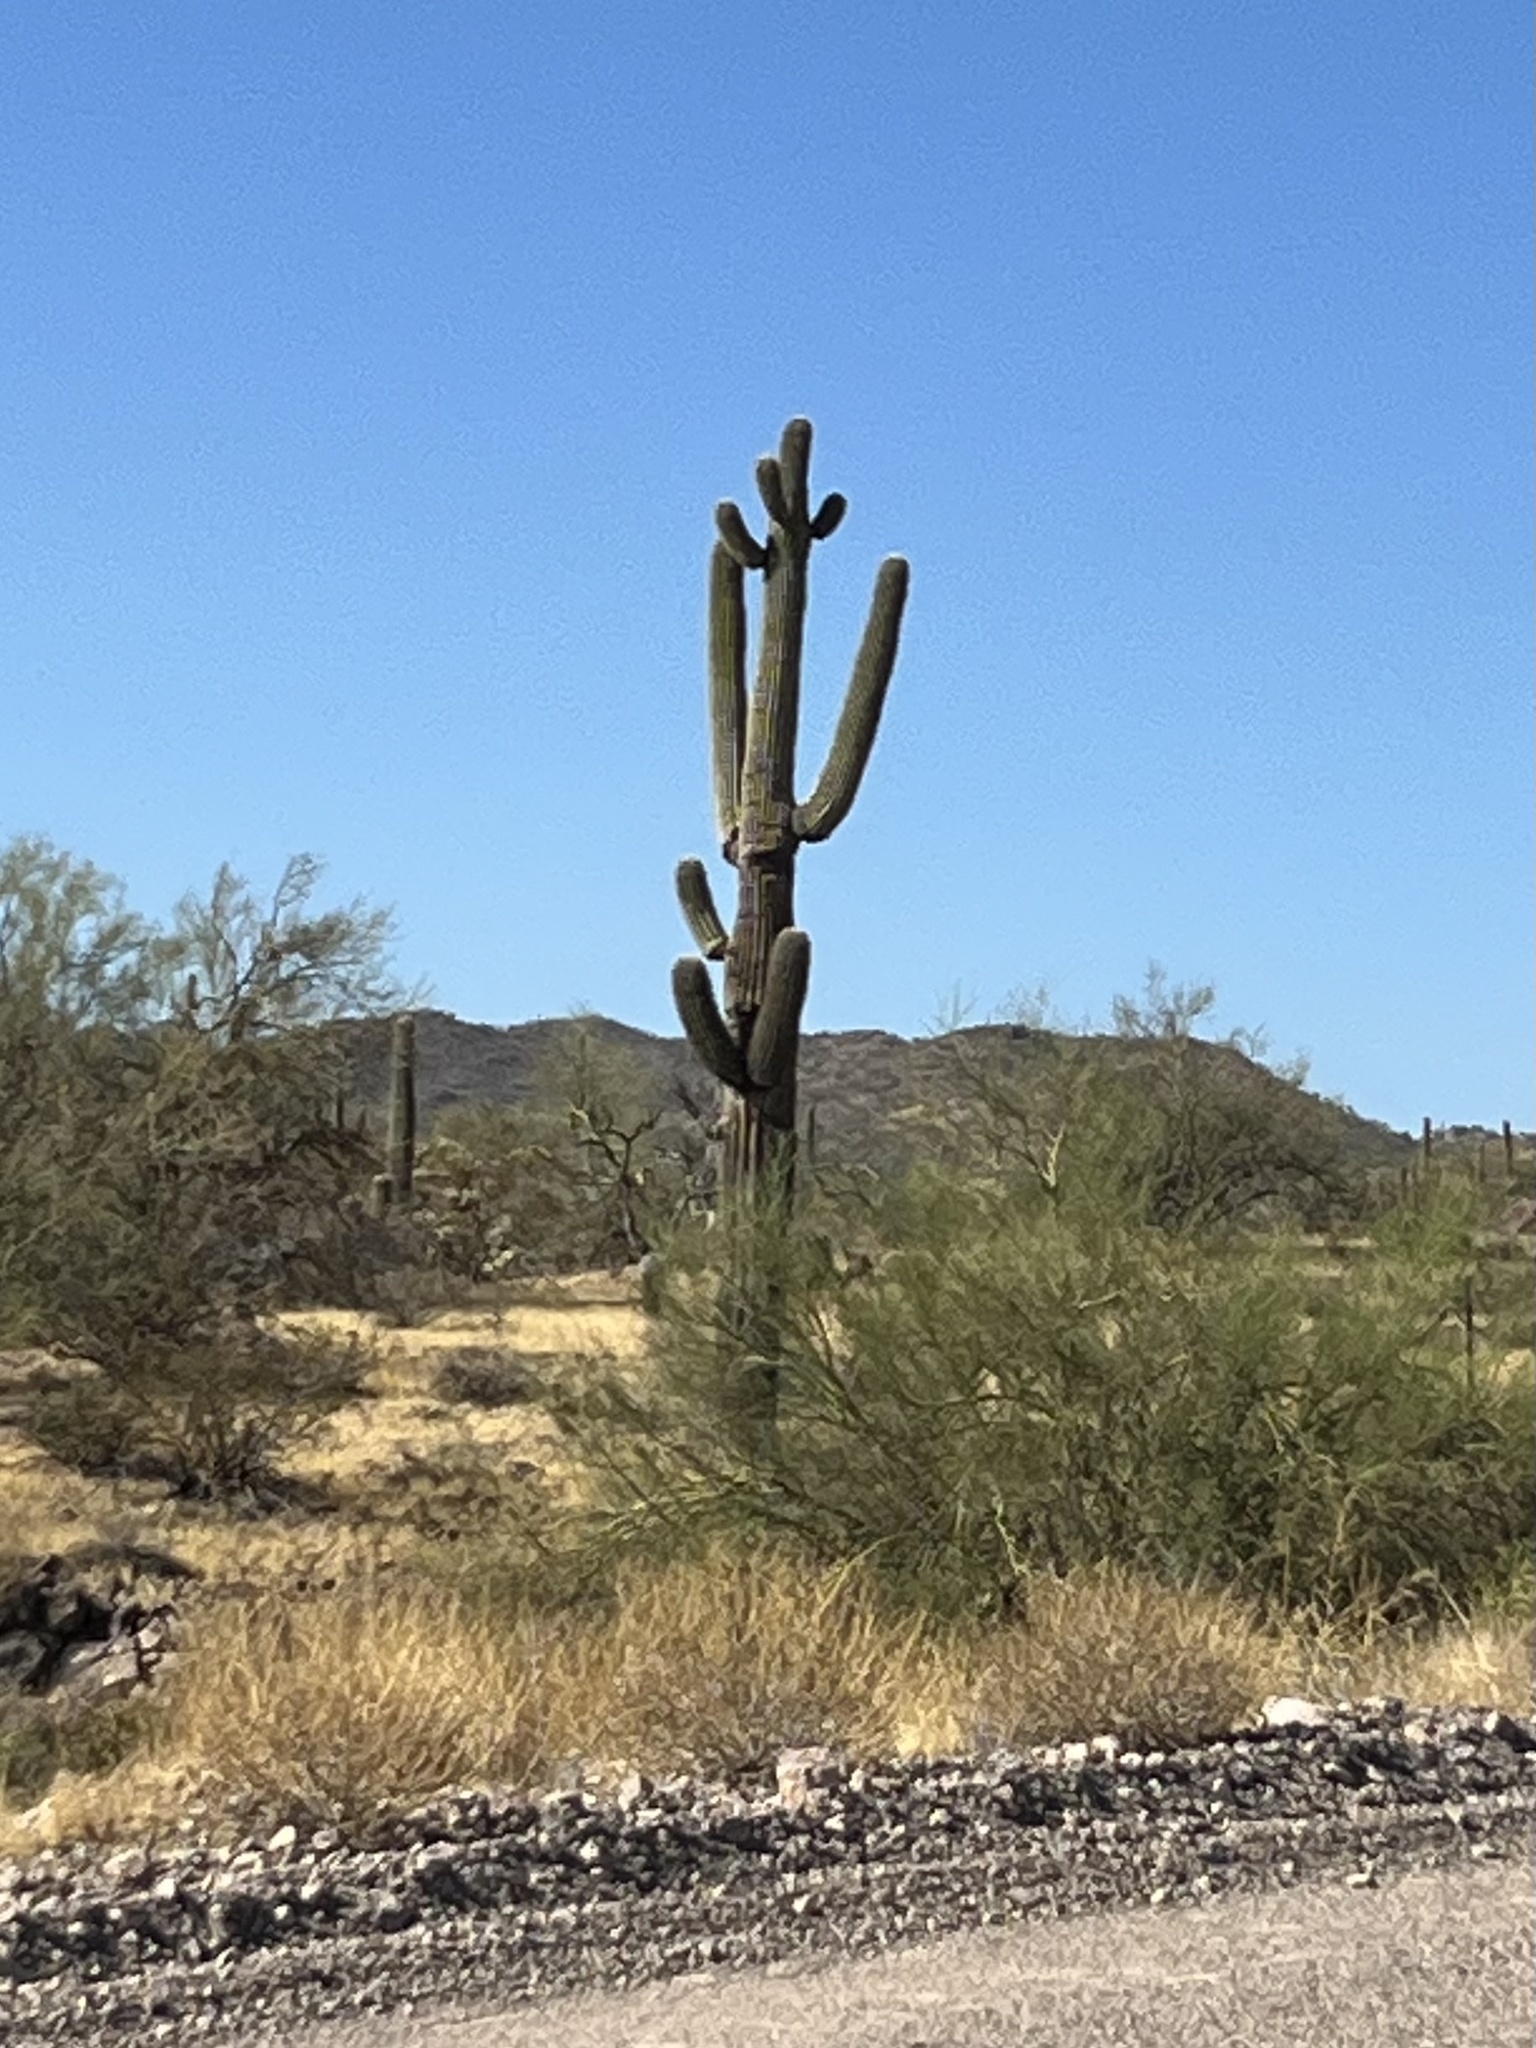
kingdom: Plantae
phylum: Tracheophyta
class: Magnoliopsida
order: Caryophyllales
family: Cactaceae
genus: Carnegiea
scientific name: Carnegiea gigantea
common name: Saguaro
